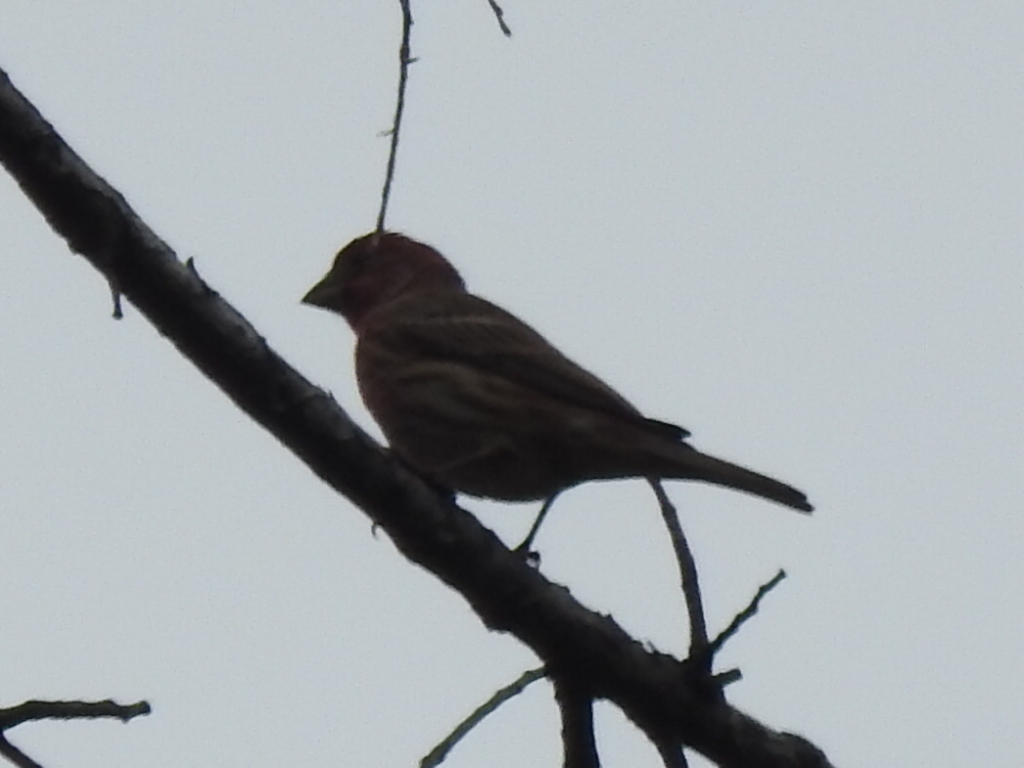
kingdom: Animalia
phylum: Chordata
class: Aves
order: Passeriformes
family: Fringillidae
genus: Haemorhous
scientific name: Haemorhous mexicanus
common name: House finch
